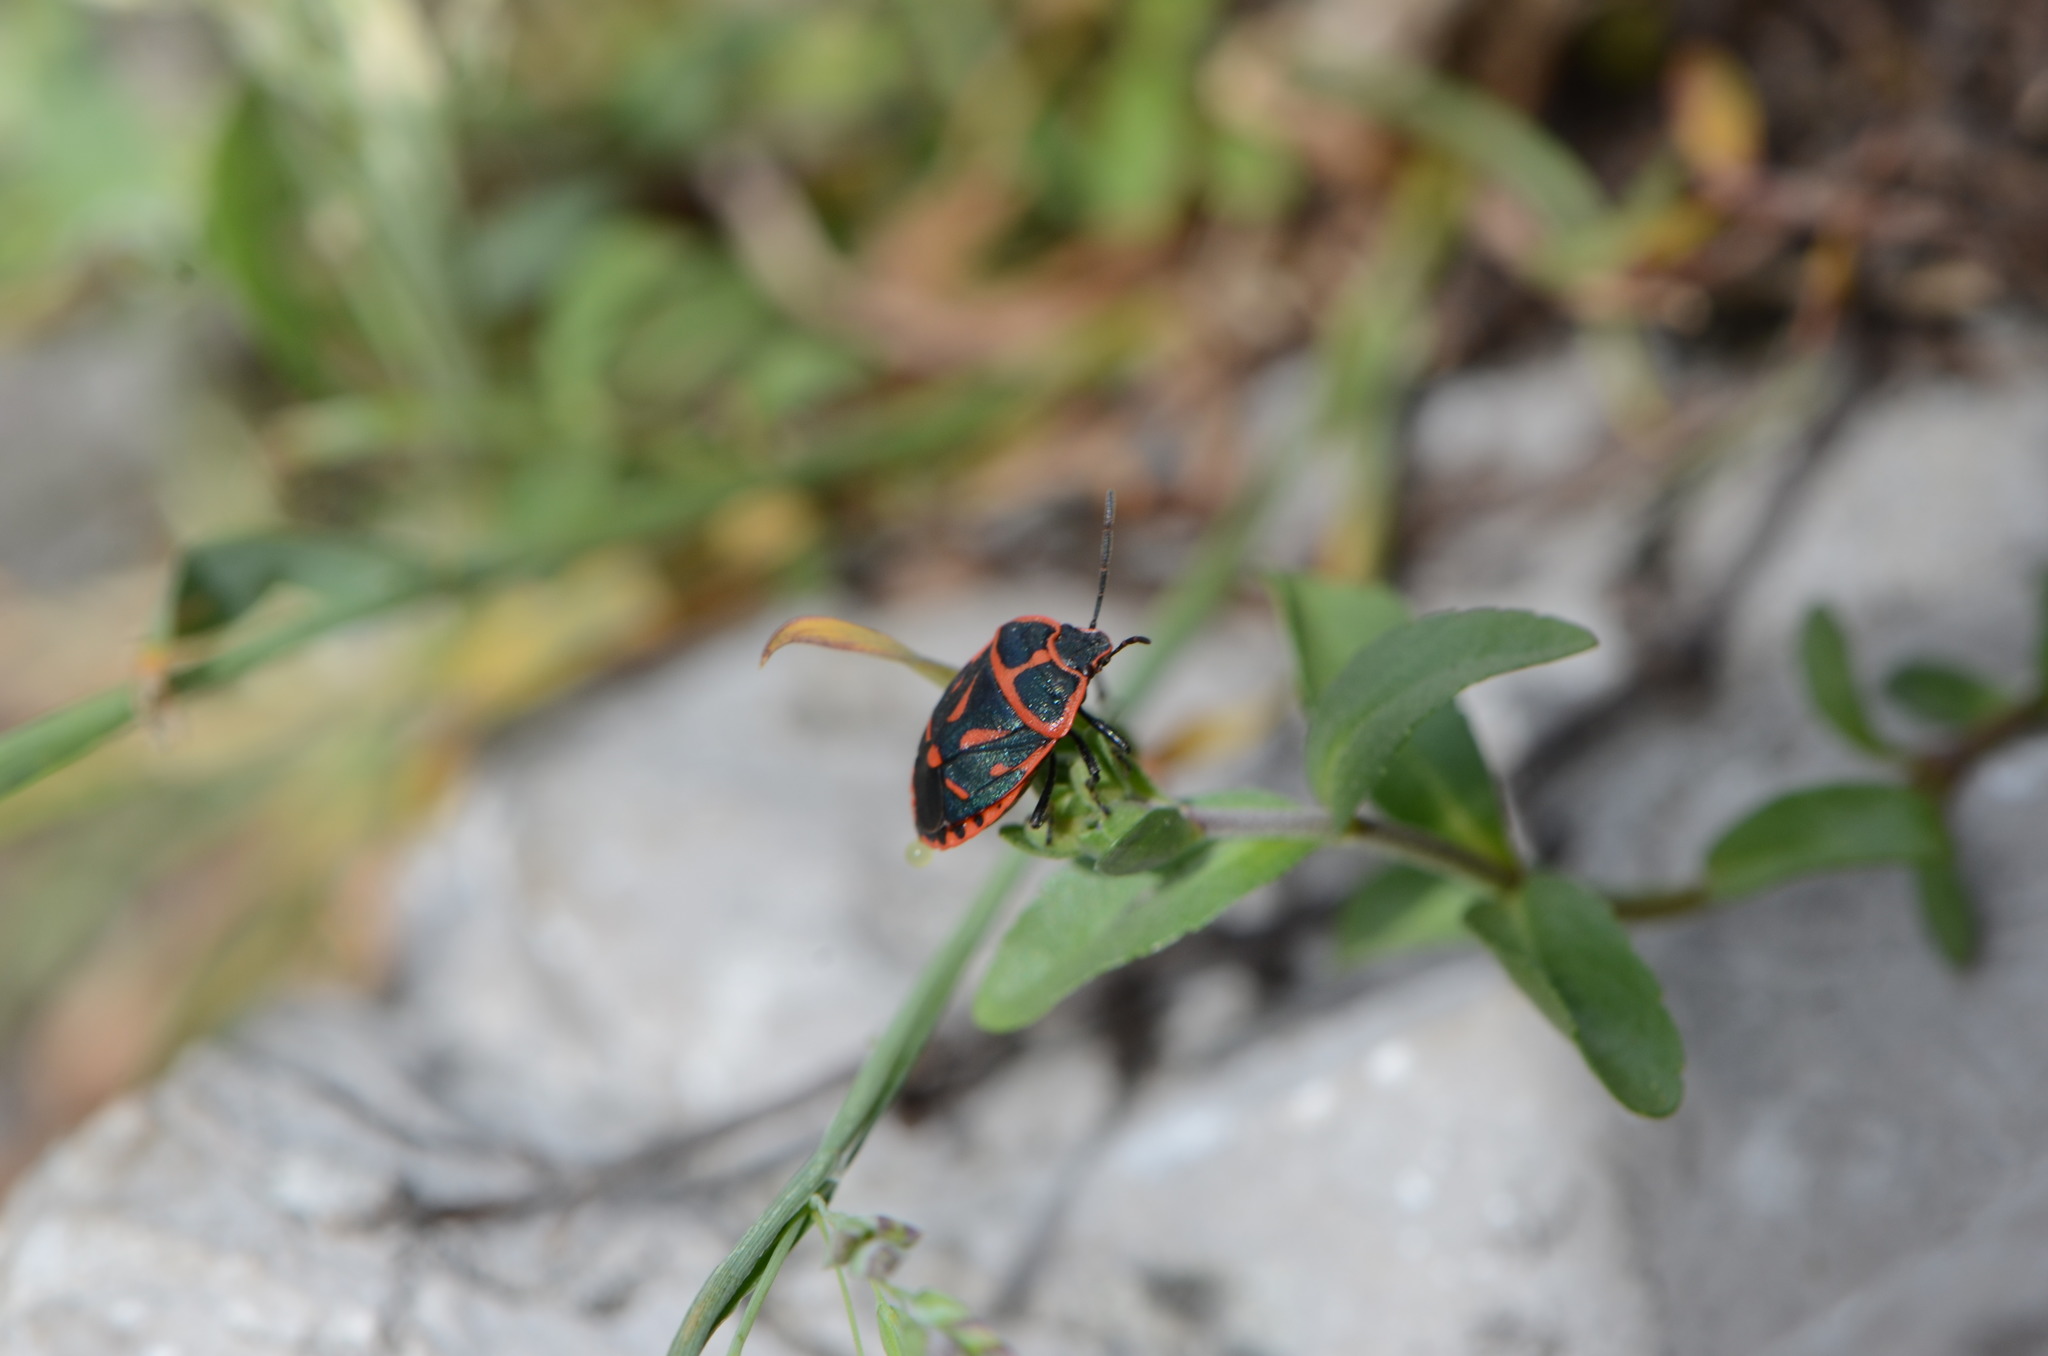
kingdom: Animalia
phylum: Arthropoda
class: Insecta
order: Hemiptera
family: Pentatomidae
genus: Eurydema
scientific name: Eurydema fieberi
